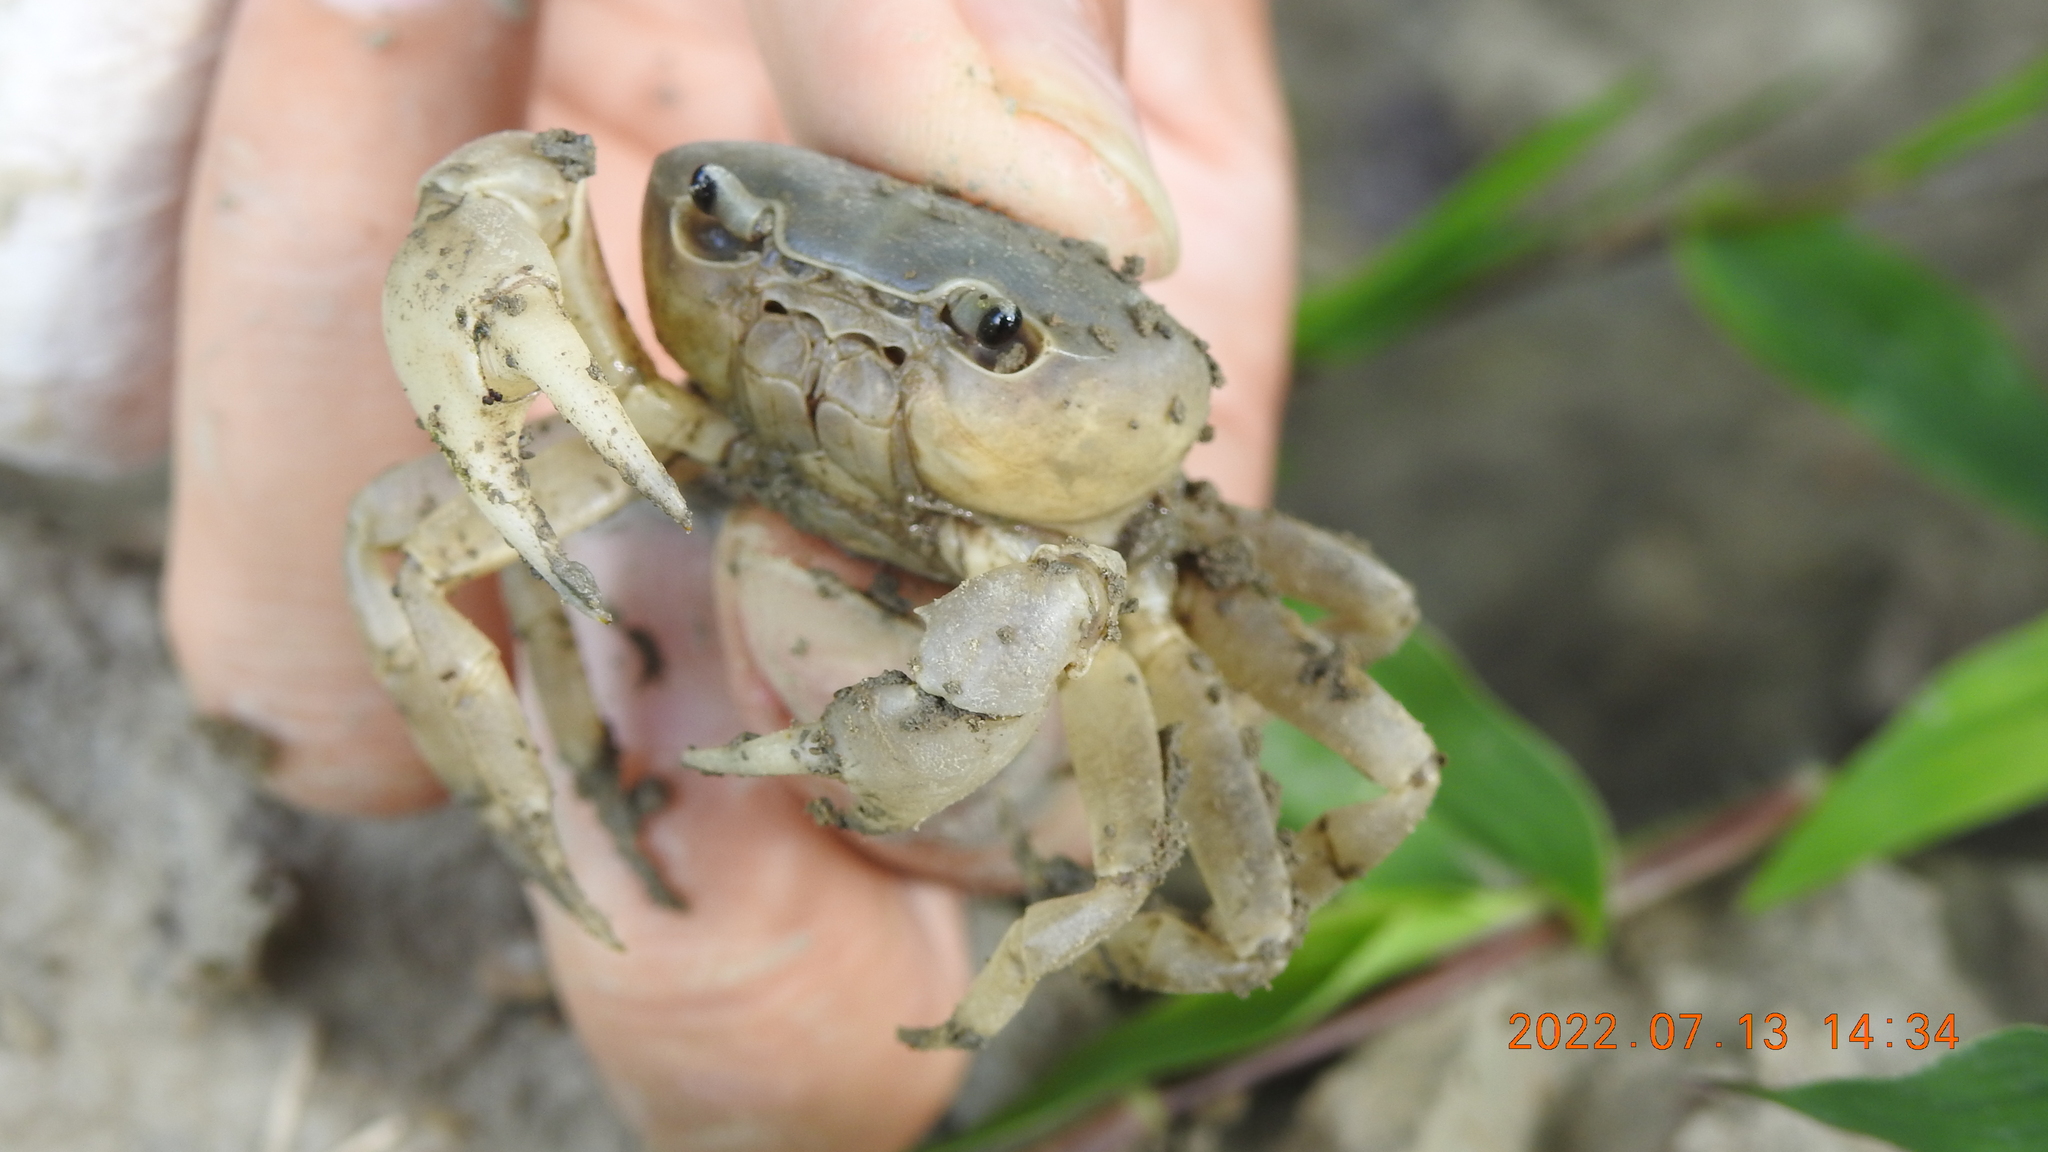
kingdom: Animalia
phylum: Arthropoda
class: Malacostraca
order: Decapoda
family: Potamidae
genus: Geothelphusa
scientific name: Geothelphusa ancylophallus
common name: Yuen chak thick crab
